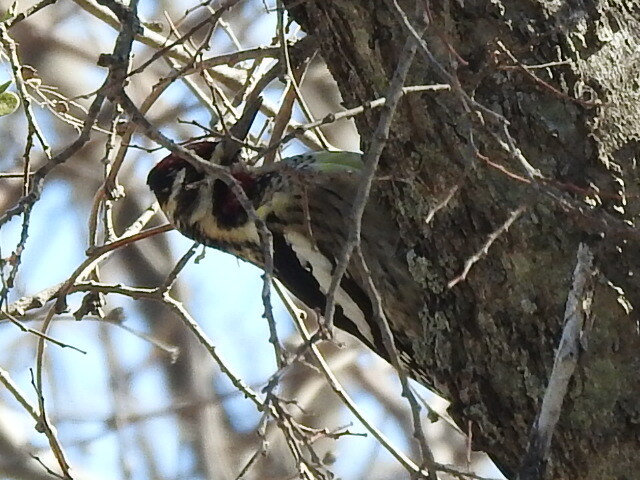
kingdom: Animalia
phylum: Chordata
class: Aves
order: Piciformes
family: Picidae
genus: Sphyrapicus
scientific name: Sphyrapicus varius
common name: Yellow-bellied sapsucker
